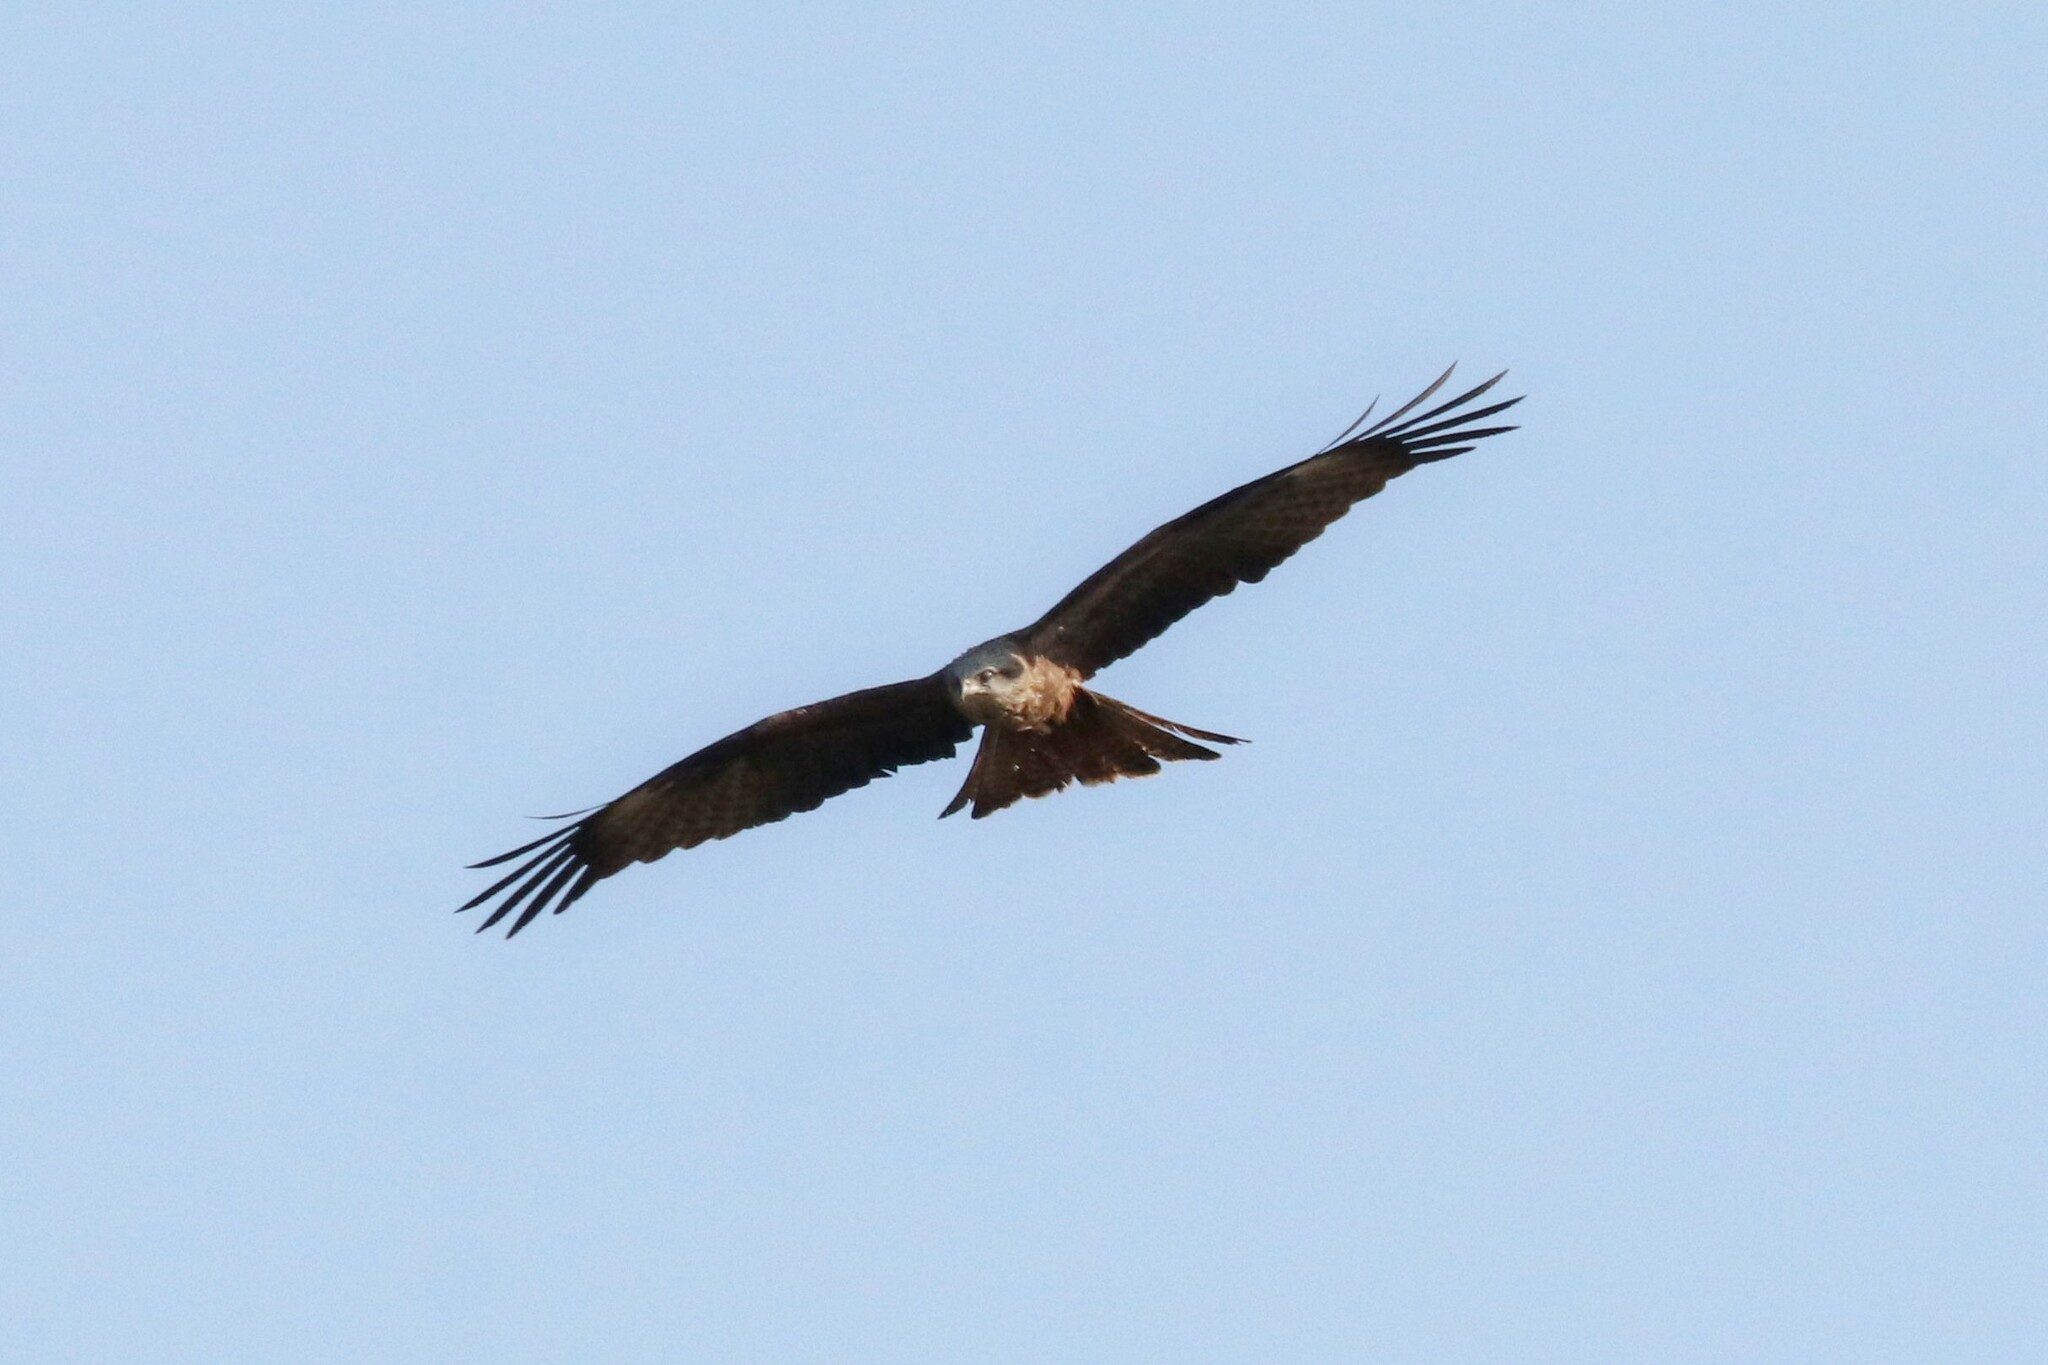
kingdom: Animalia
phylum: Chordata
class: Aves
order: Accipitriformes
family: Accipitridae
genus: Milvus
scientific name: Milvus migrans
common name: Black kite
